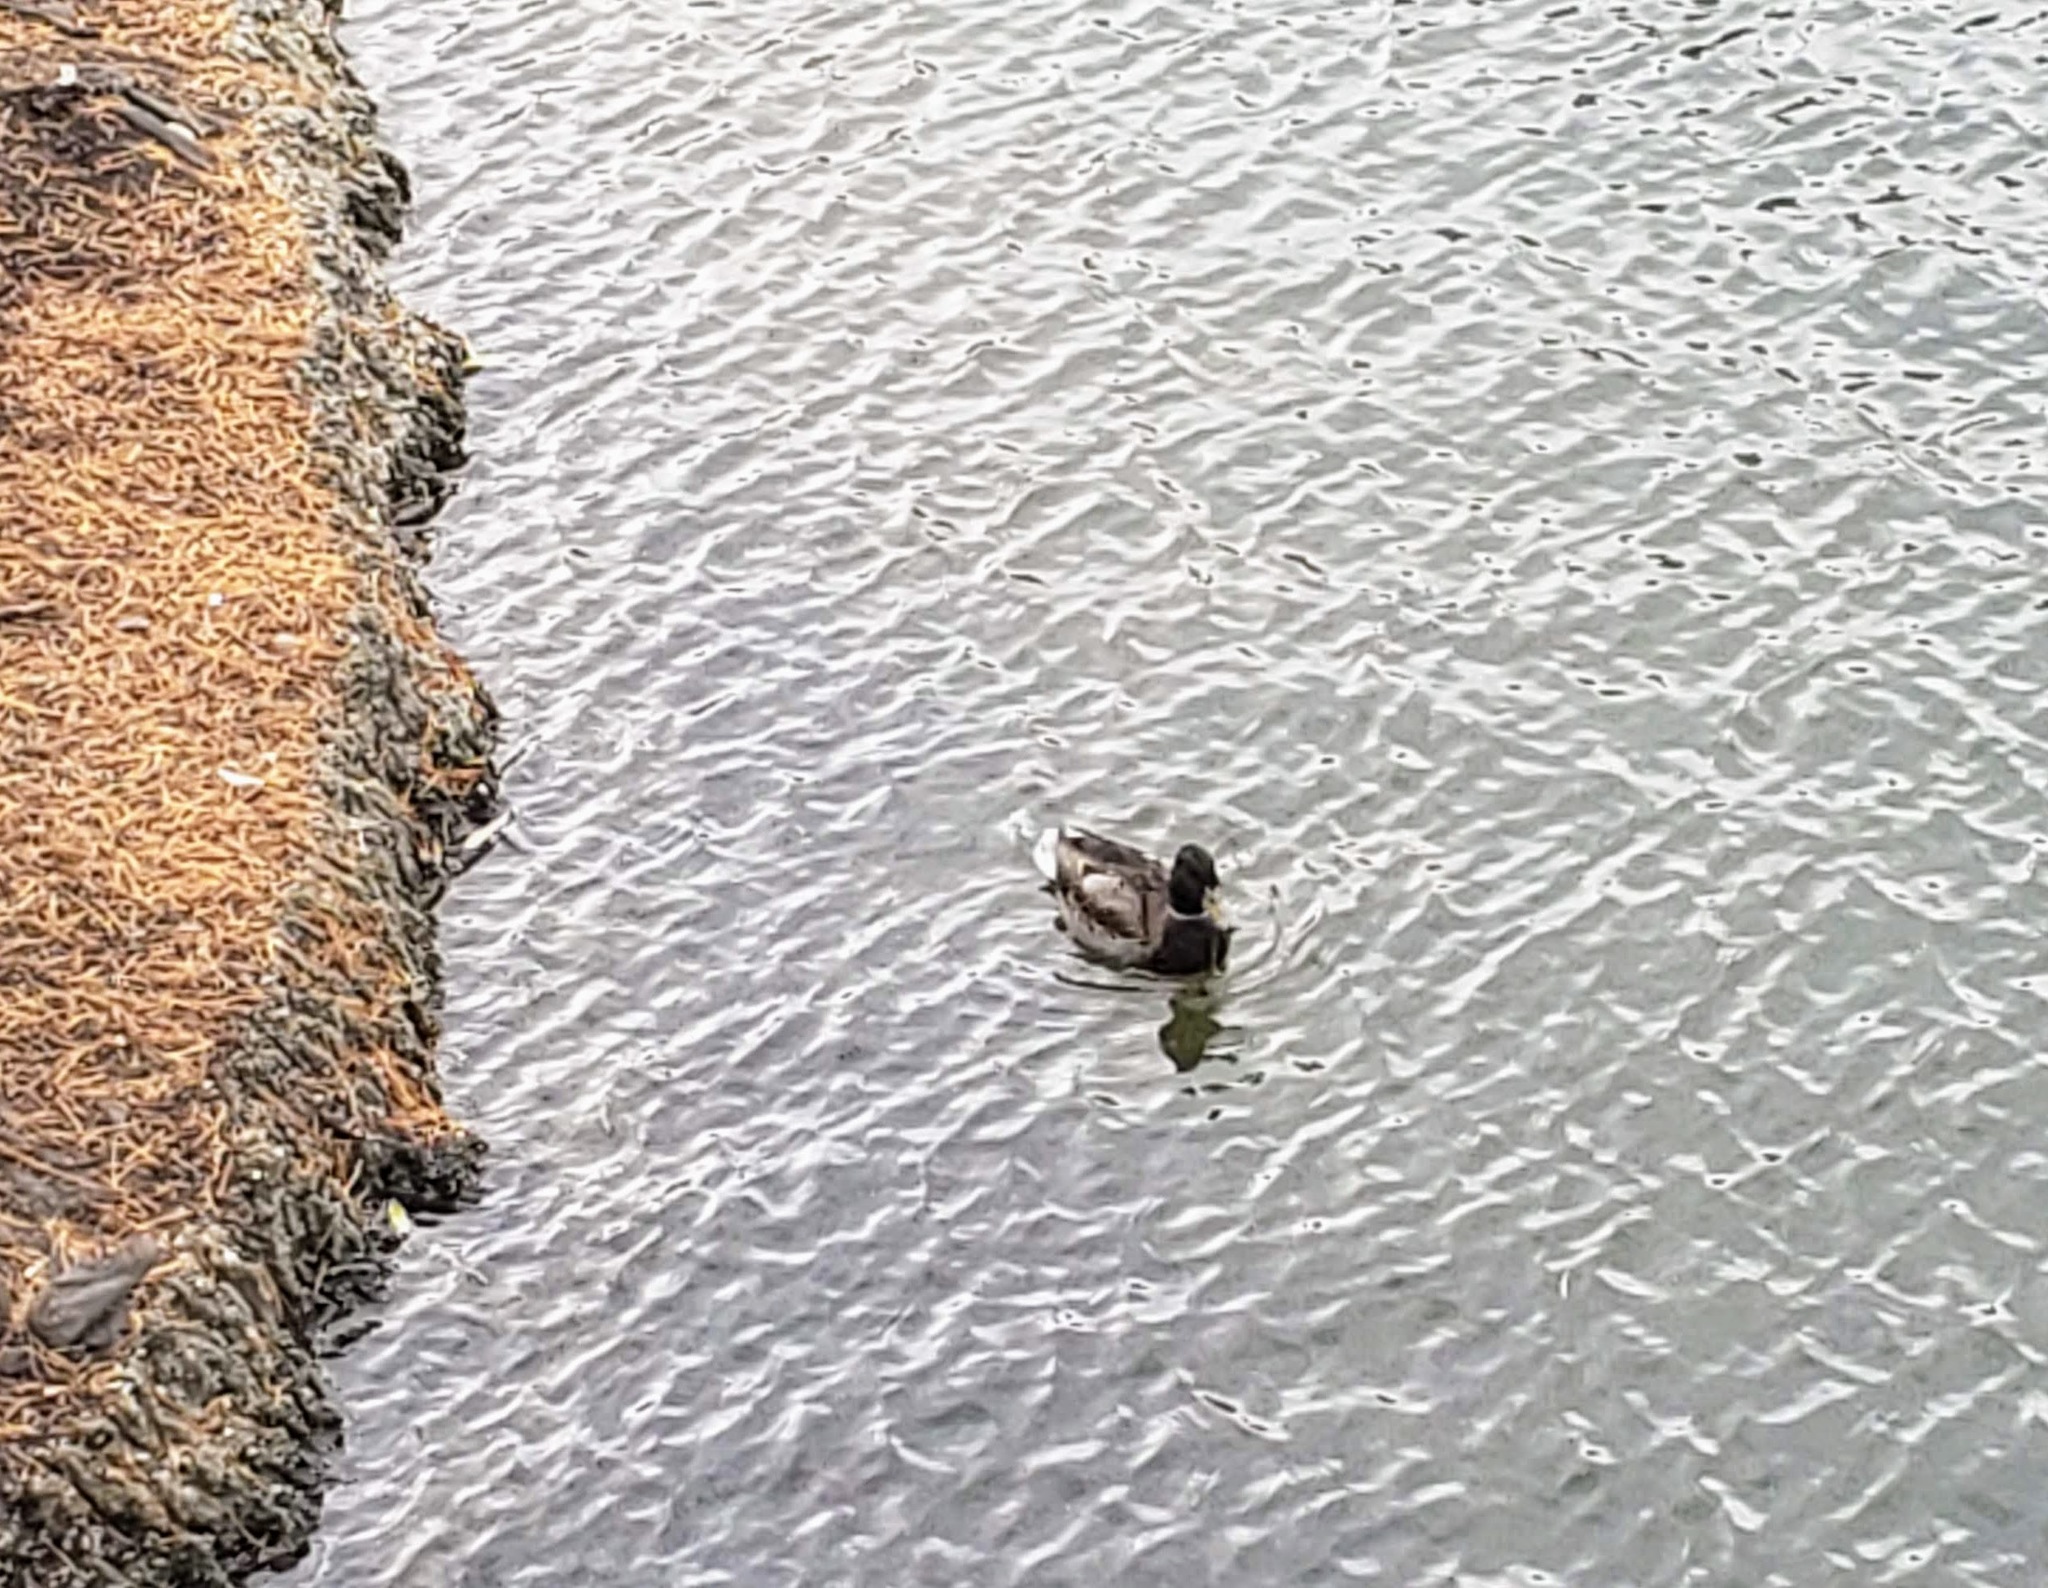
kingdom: Animalia
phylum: Chordata
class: Aves
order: Anseriformes
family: Anatidae
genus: Anas
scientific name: Anas platyrhynchos
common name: Mallard
